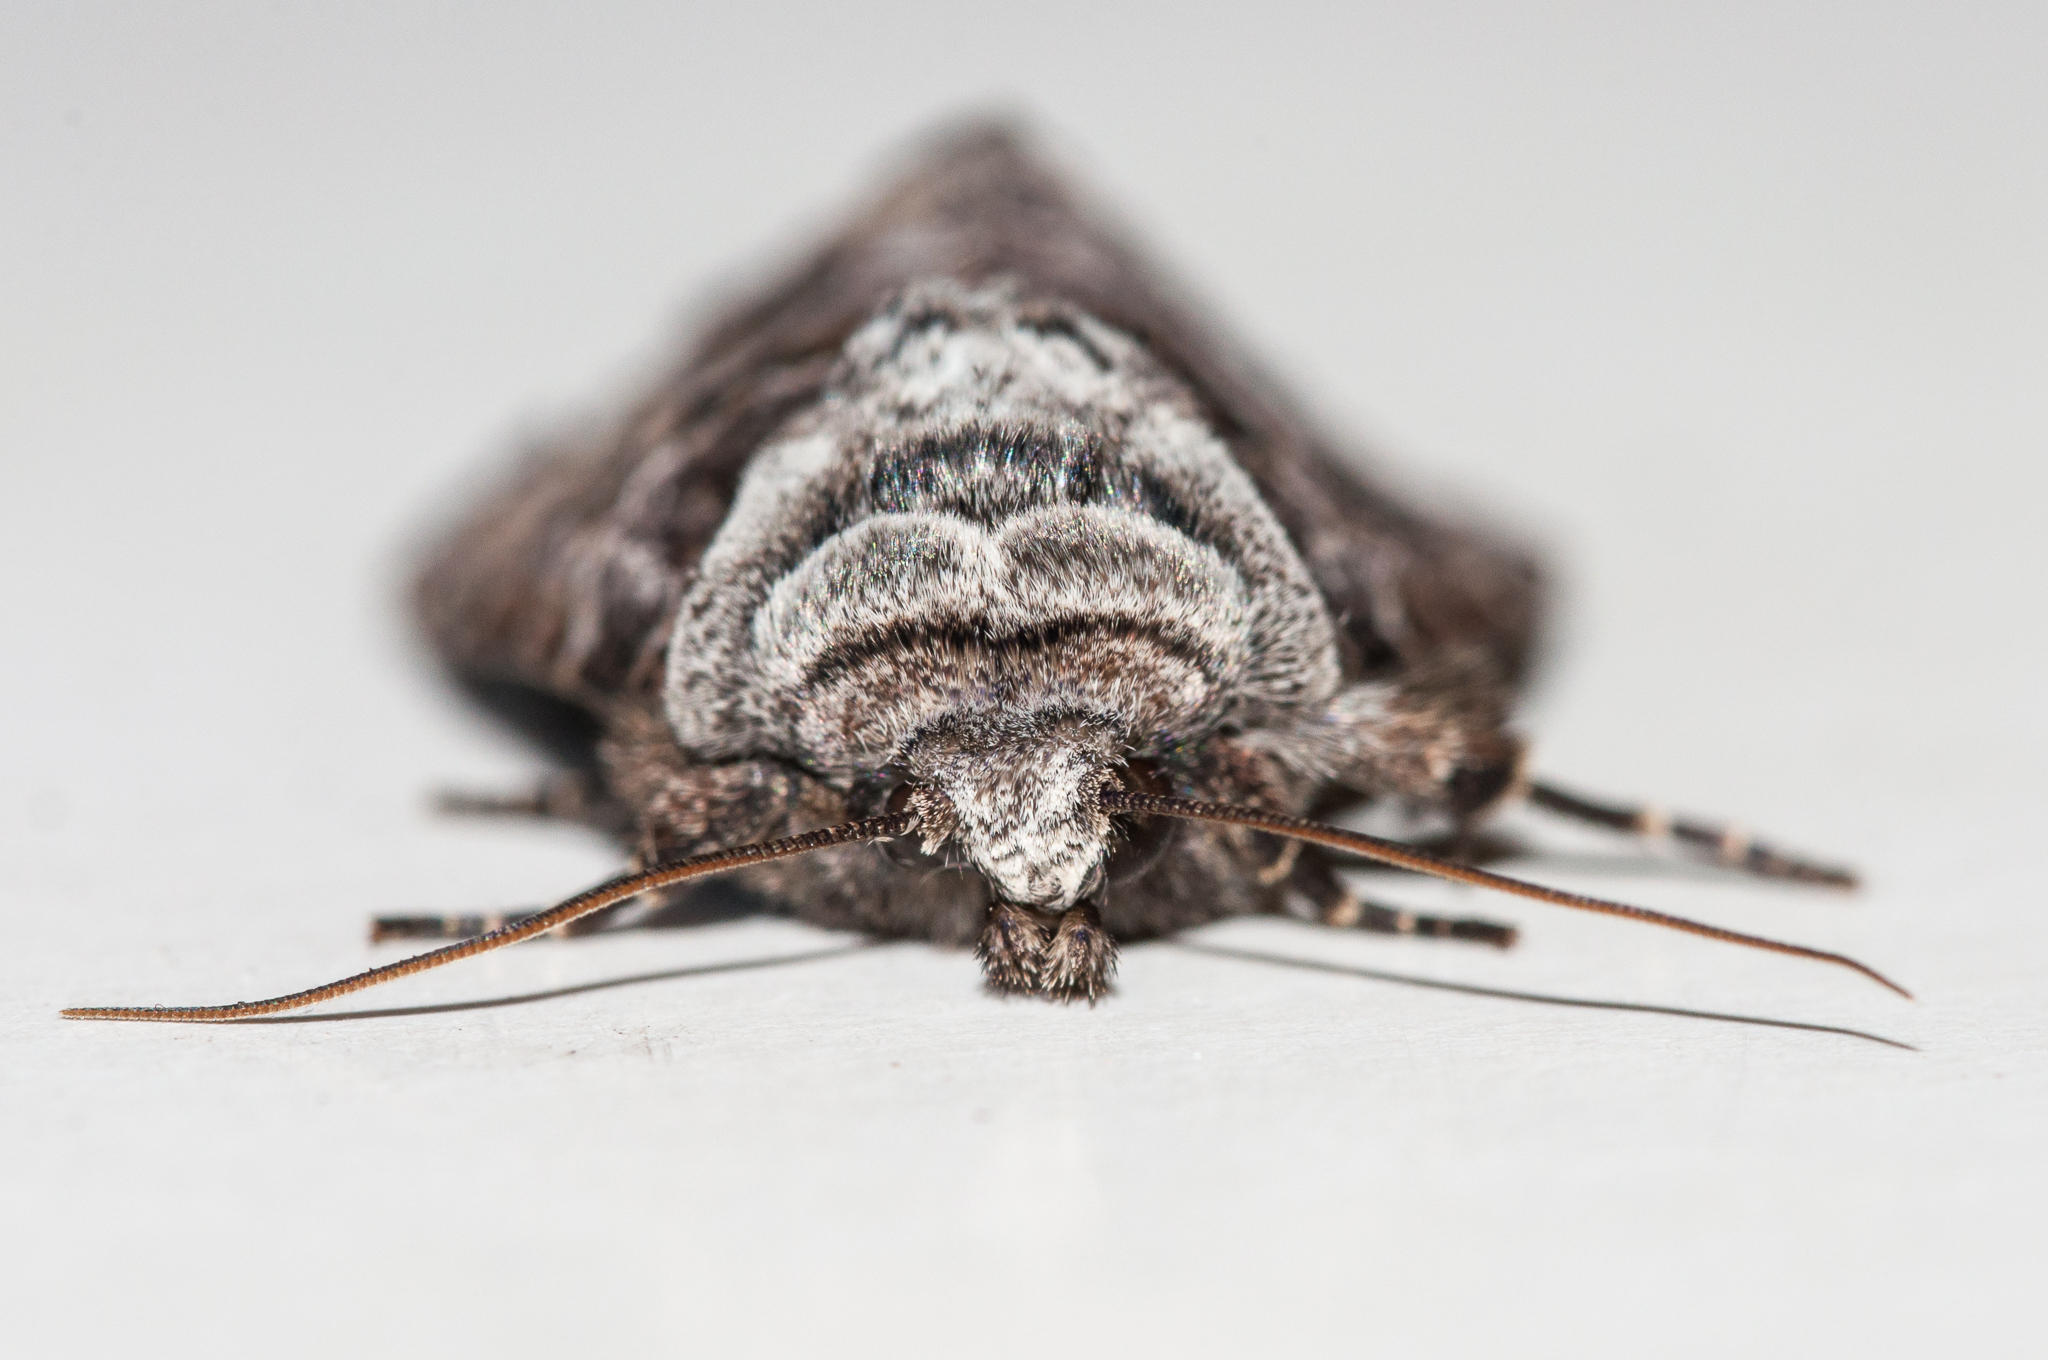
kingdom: Animalia
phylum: Arthropoda
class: Insecta
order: Lepidoptera
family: Noctuidae
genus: Neuranethes
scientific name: Neuranethes spodopterodes
